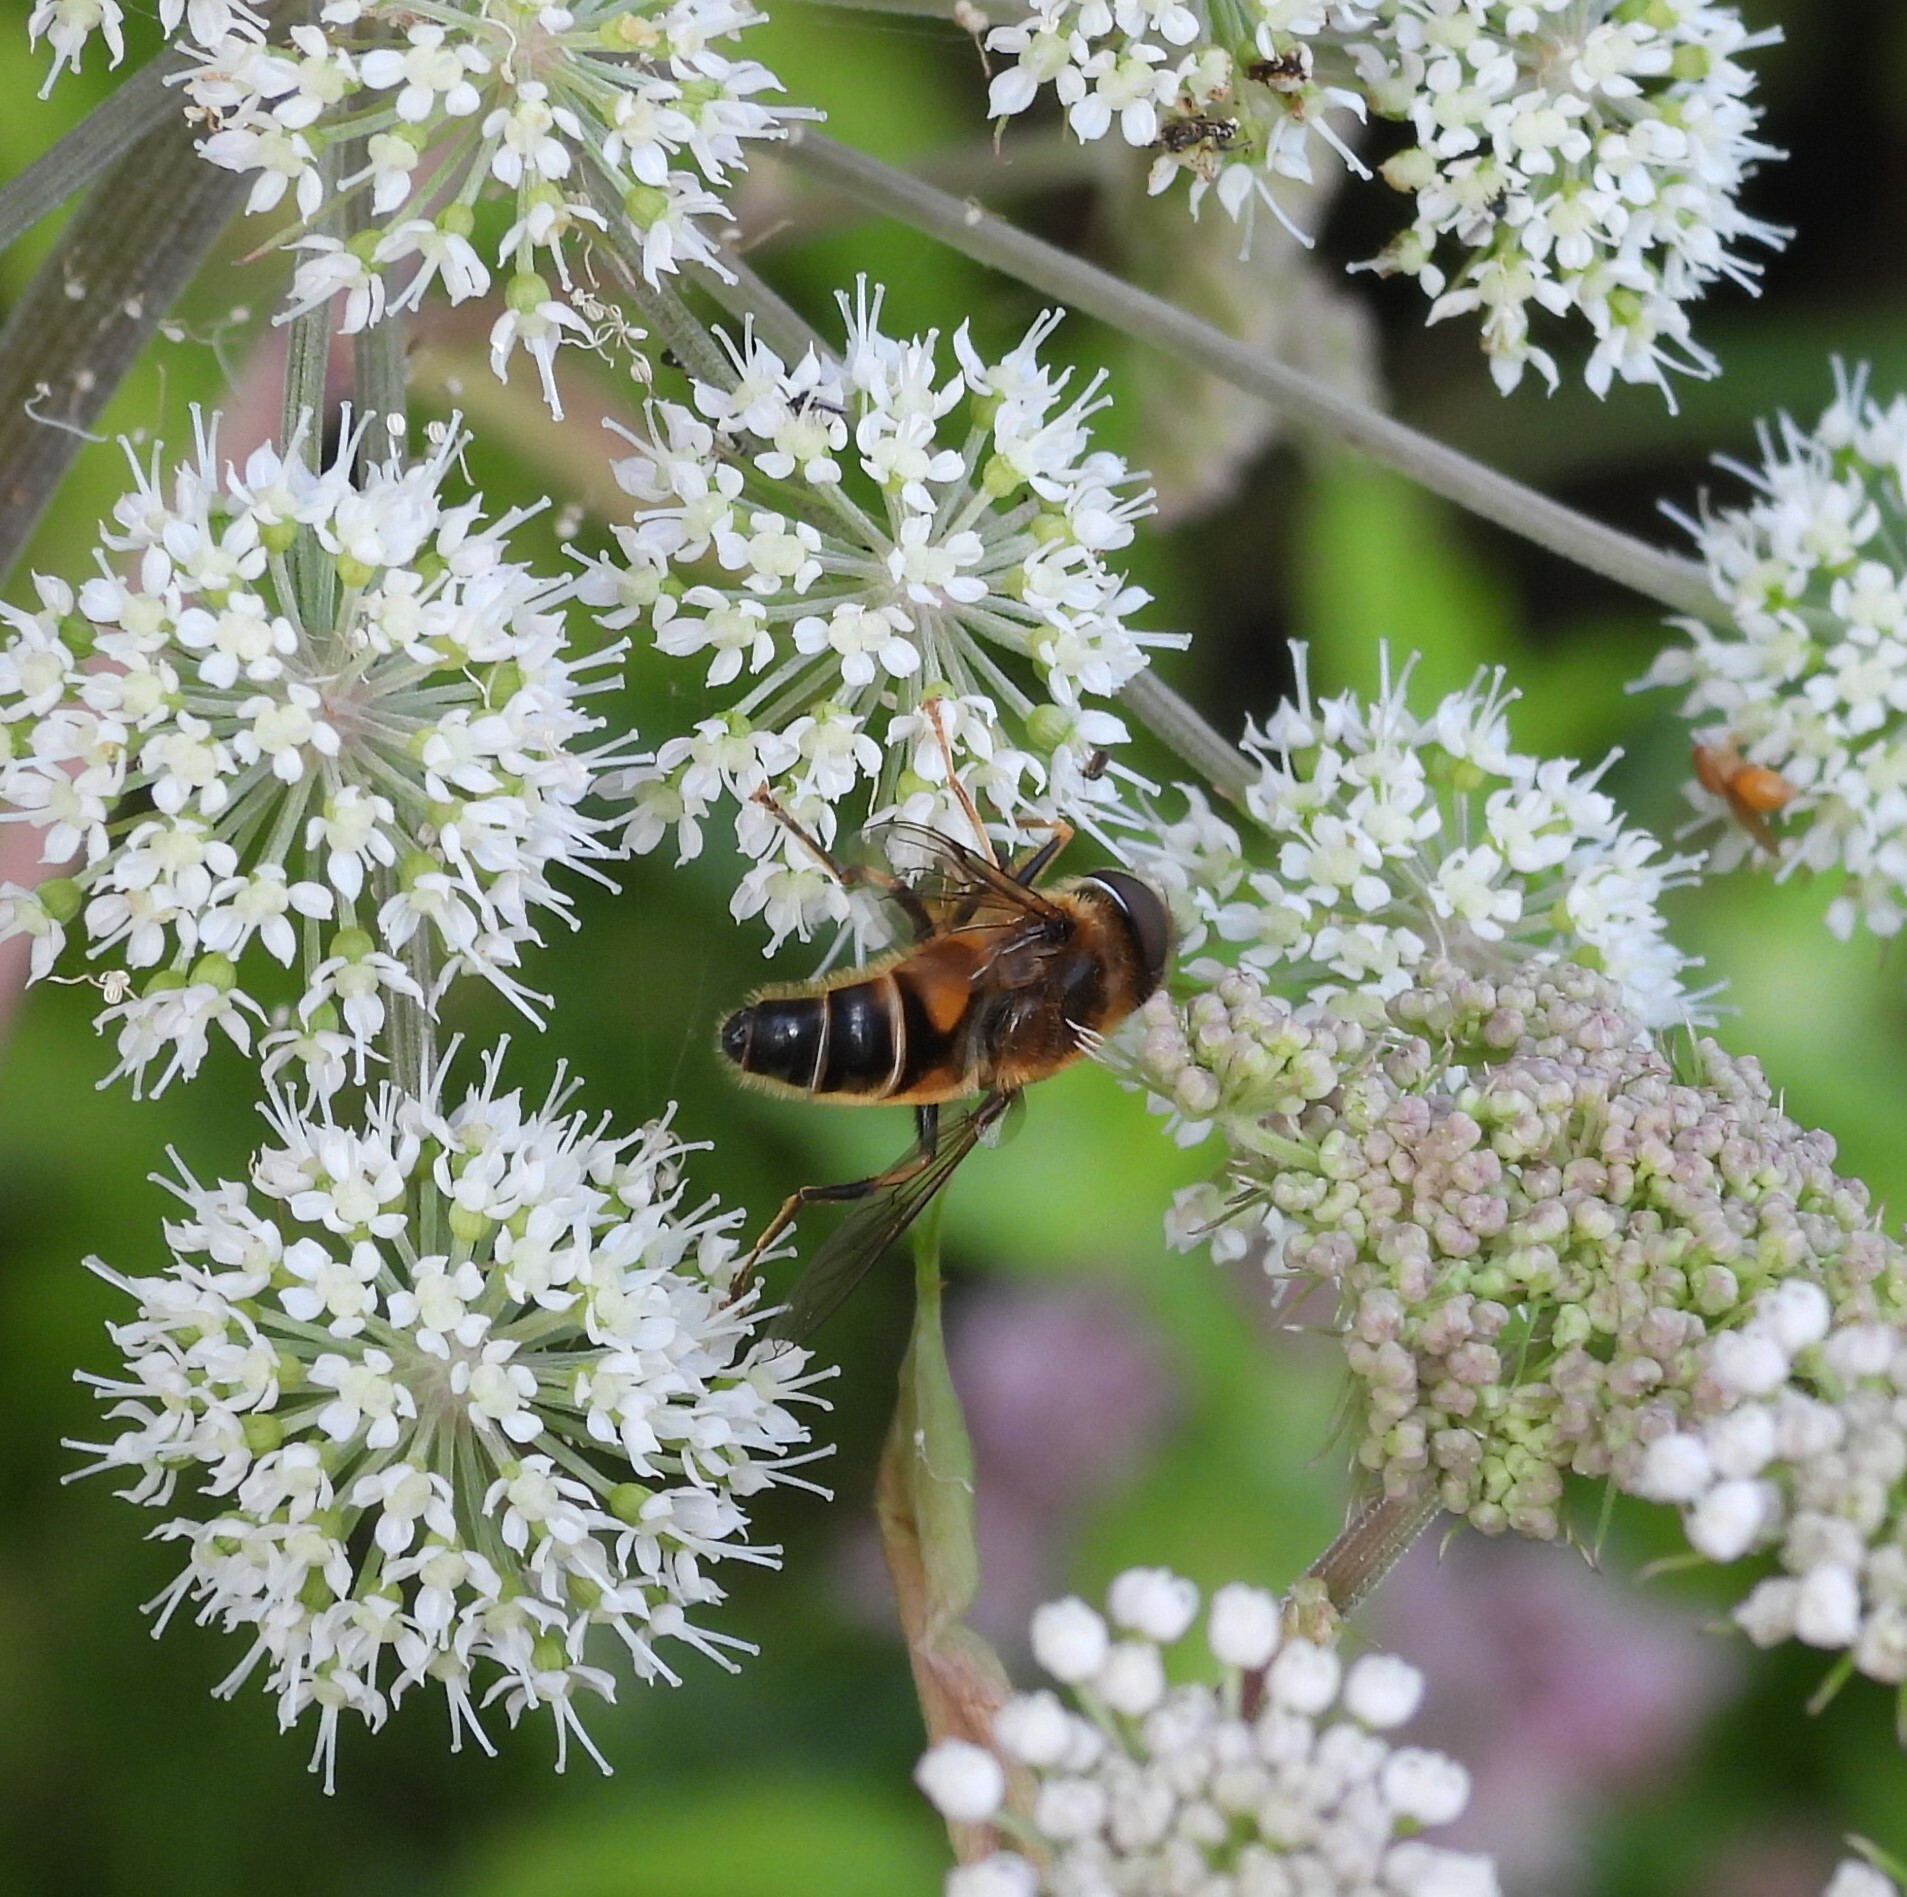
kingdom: Animalia
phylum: Arthropoda
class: Insecta
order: Diptera
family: Syrphidae
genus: Eristalis
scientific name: Eristalis pertinax
